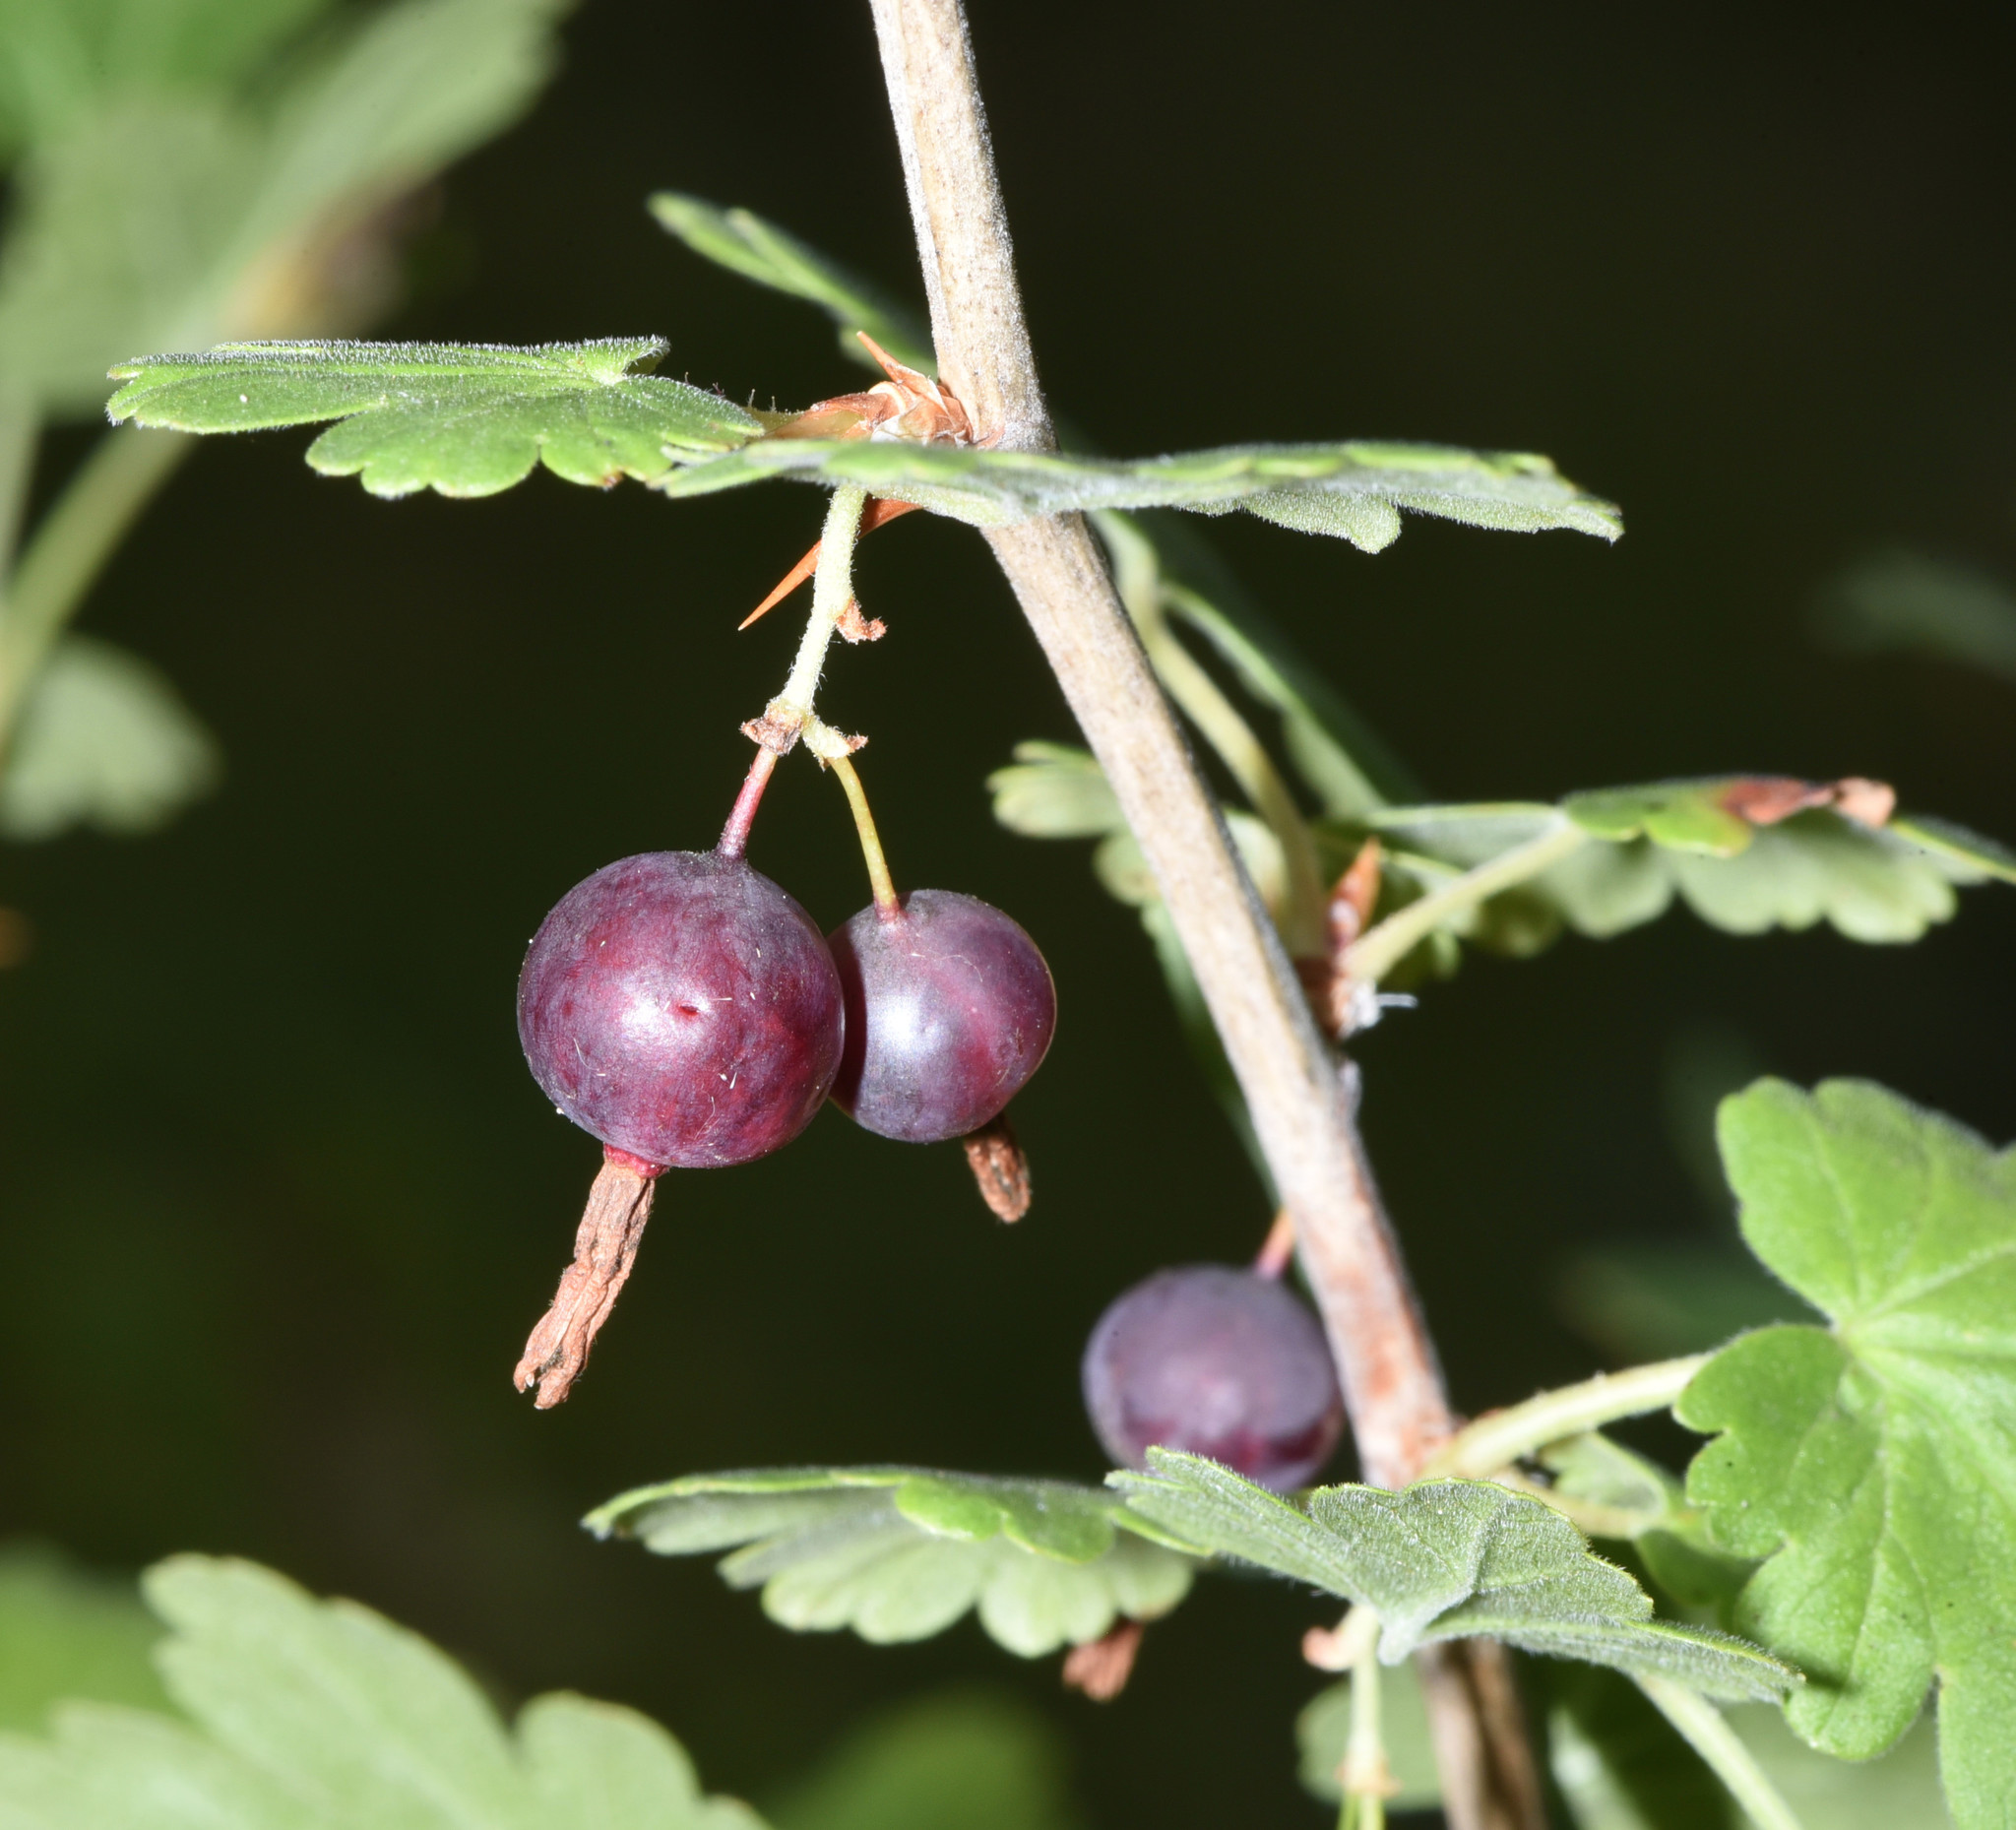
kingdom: Plantae
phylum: Tracheophyta
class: Magnoliopsida
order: Saxifragales
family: Grossulariaceae
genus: Ribes
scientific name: Ribes inerme
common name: White-stem gooseberry
